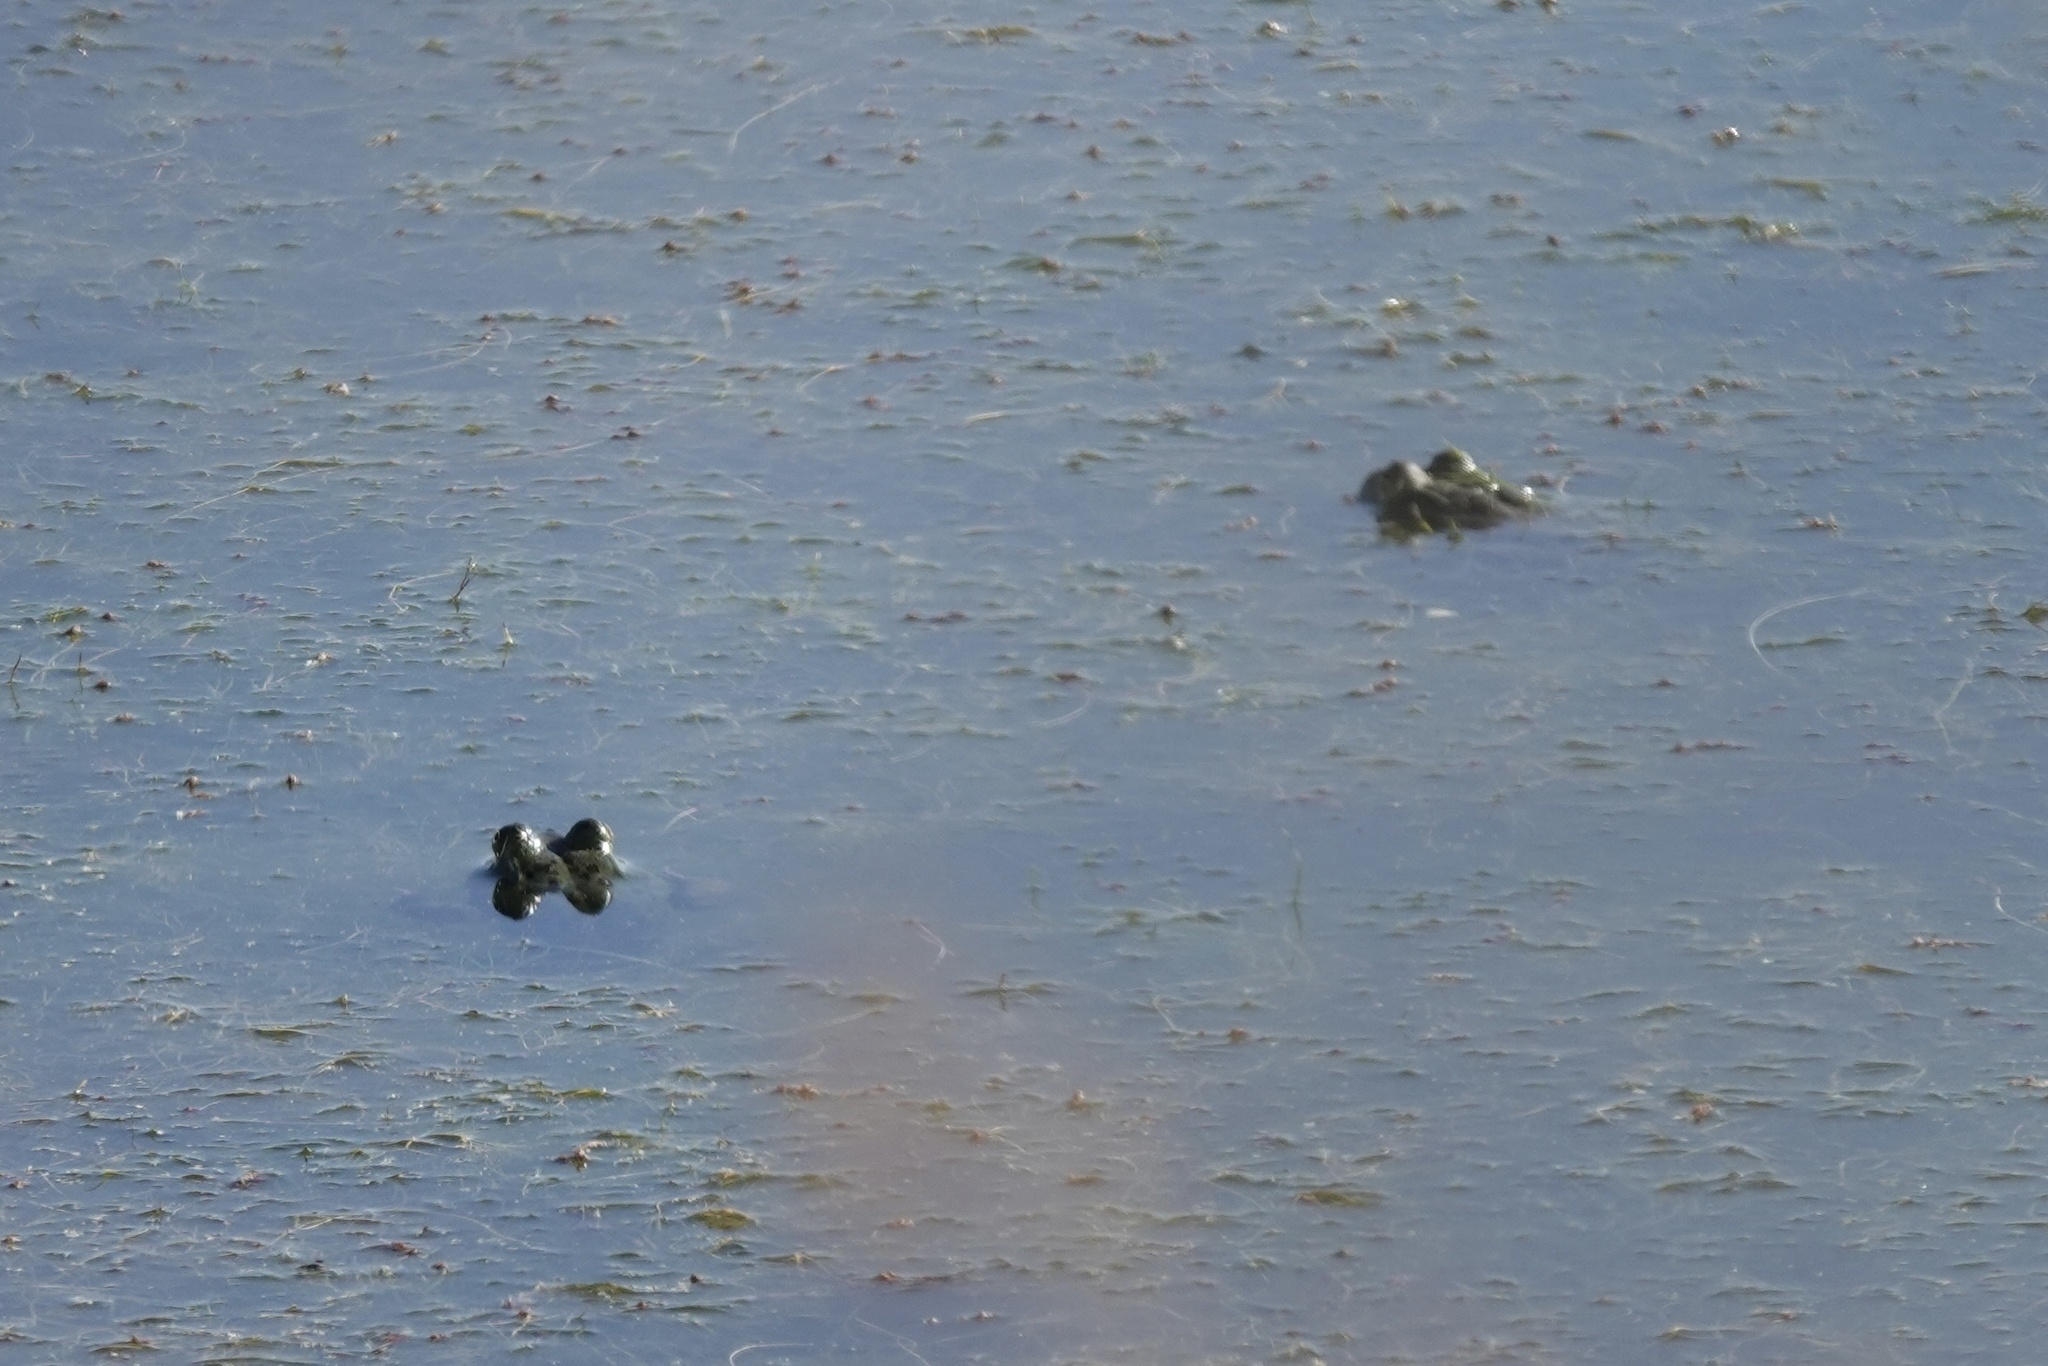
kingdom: Animalia
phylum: Chordata
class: Amphibia
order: Anura
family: Ranidae
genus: Lithobates
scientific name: Lithobates catesbeianus
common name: American bullfrog
